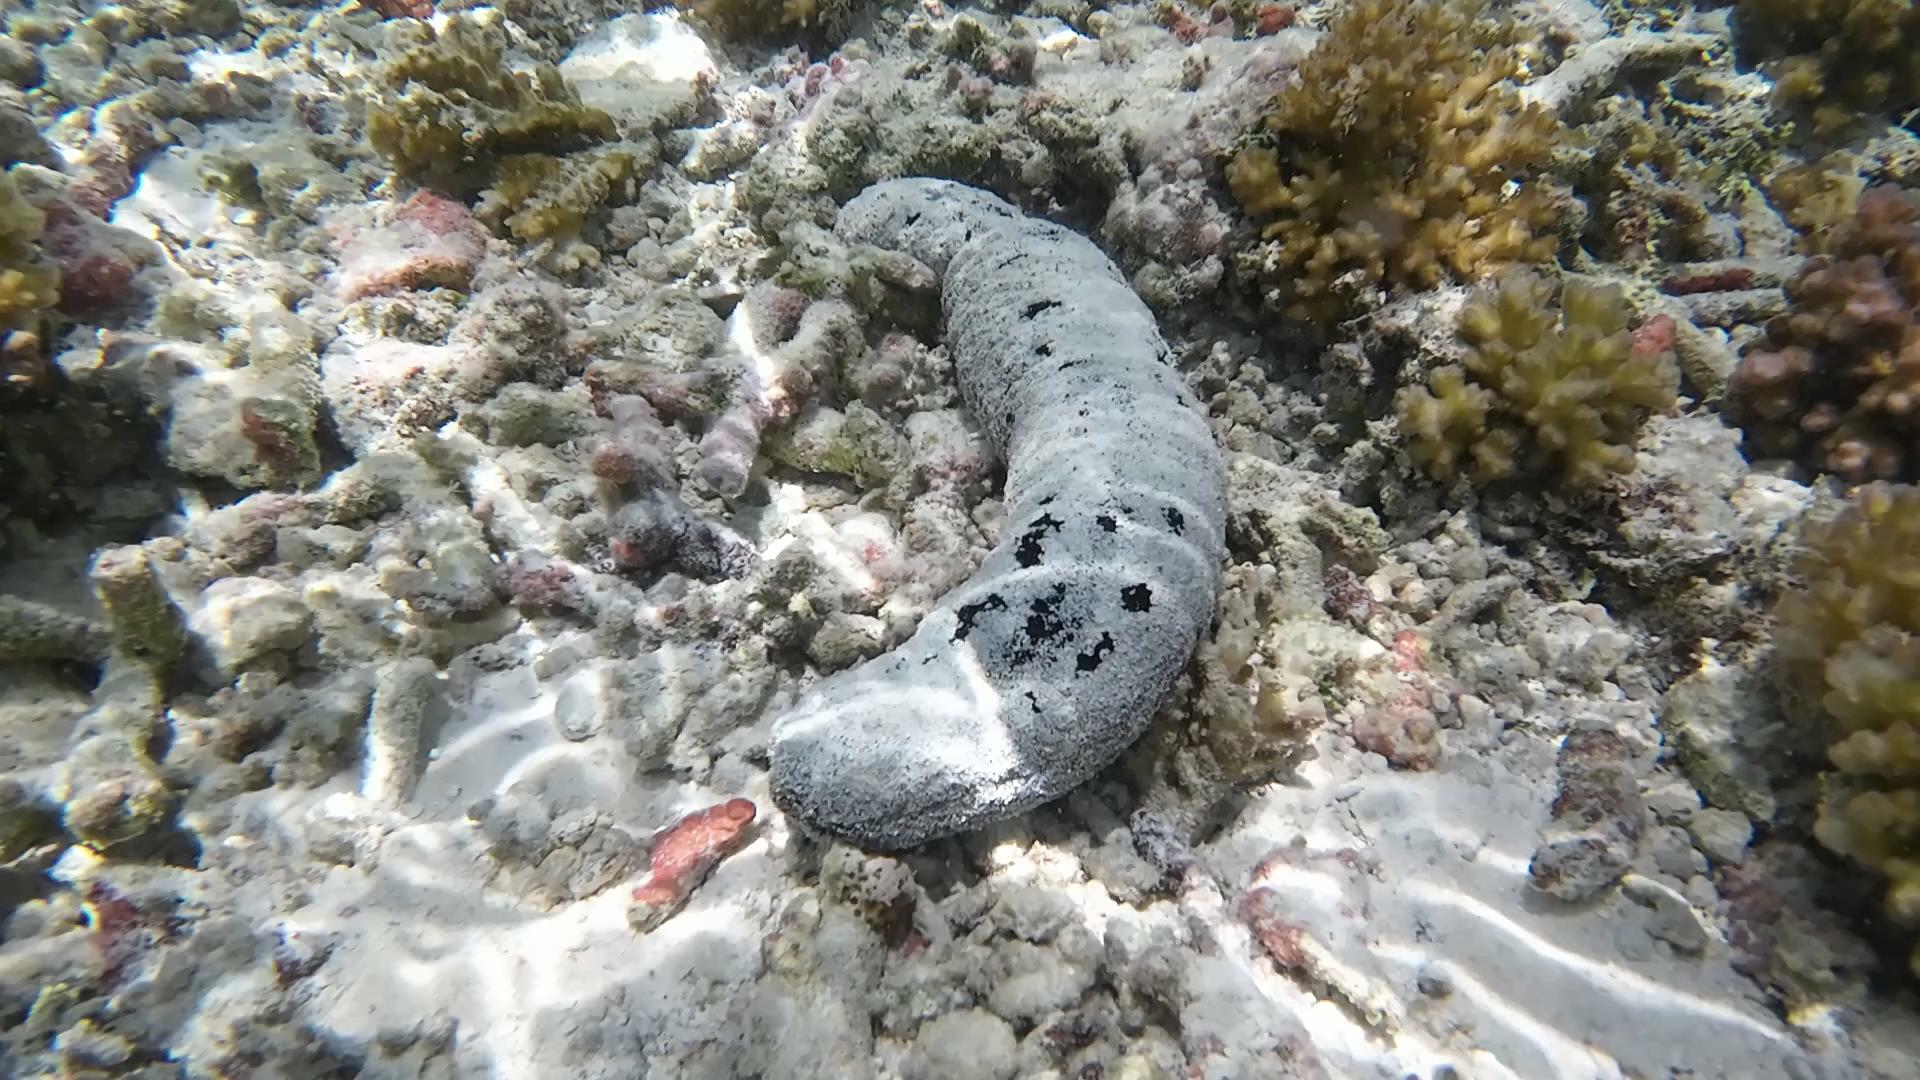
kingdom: Animalia
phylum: Echinodermata
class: Holothuroidea
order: Holothuriida
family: Holothuriidae
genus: Holothuria
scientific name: Holothuria atra
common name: Lollyfish
